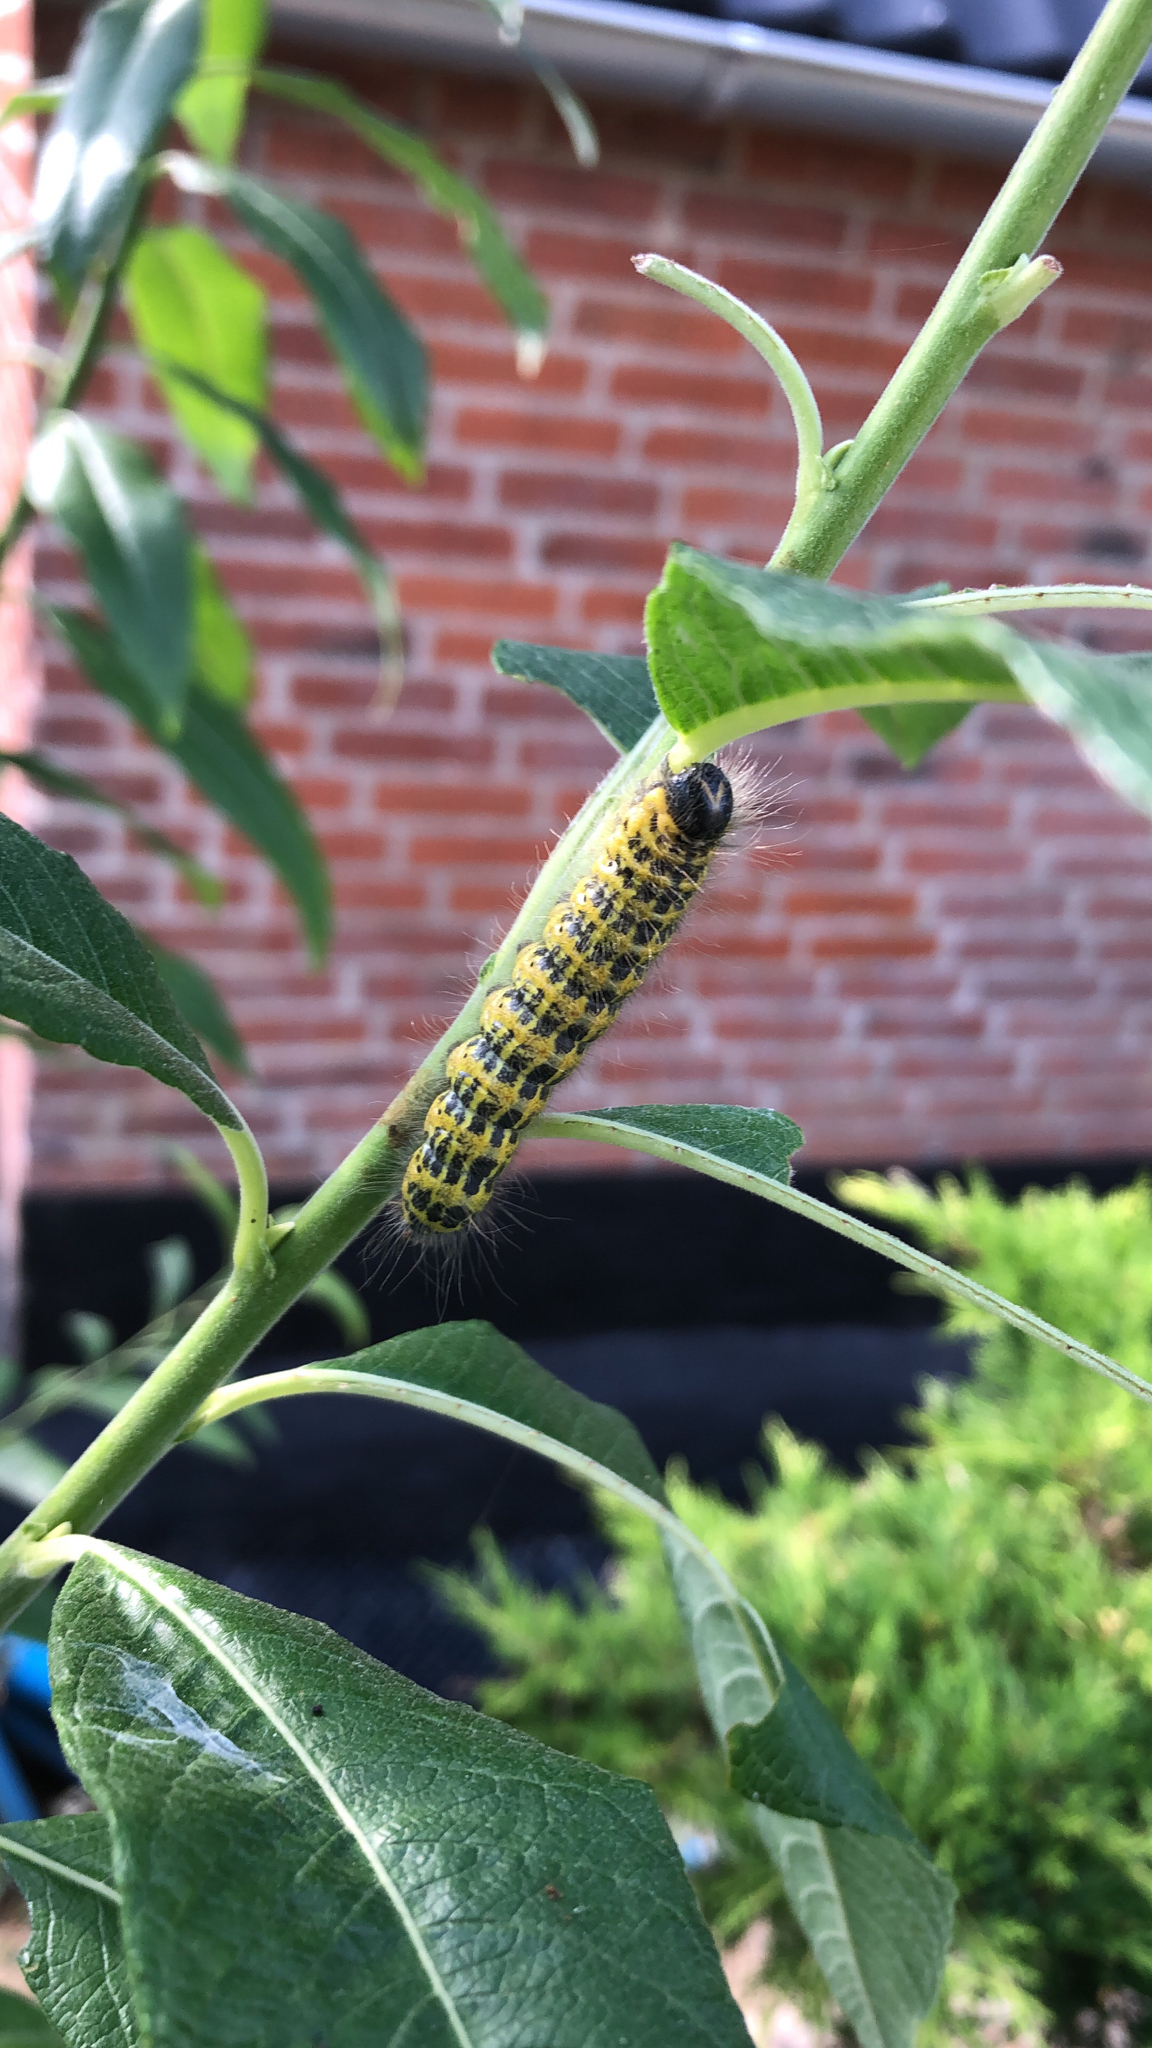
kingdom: Animalia
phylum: Arthropoda
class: Insecta
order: Lepidoptera
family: Notodontidae
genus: Phalera
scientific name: Phalera bucephala
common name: Buff-tip
